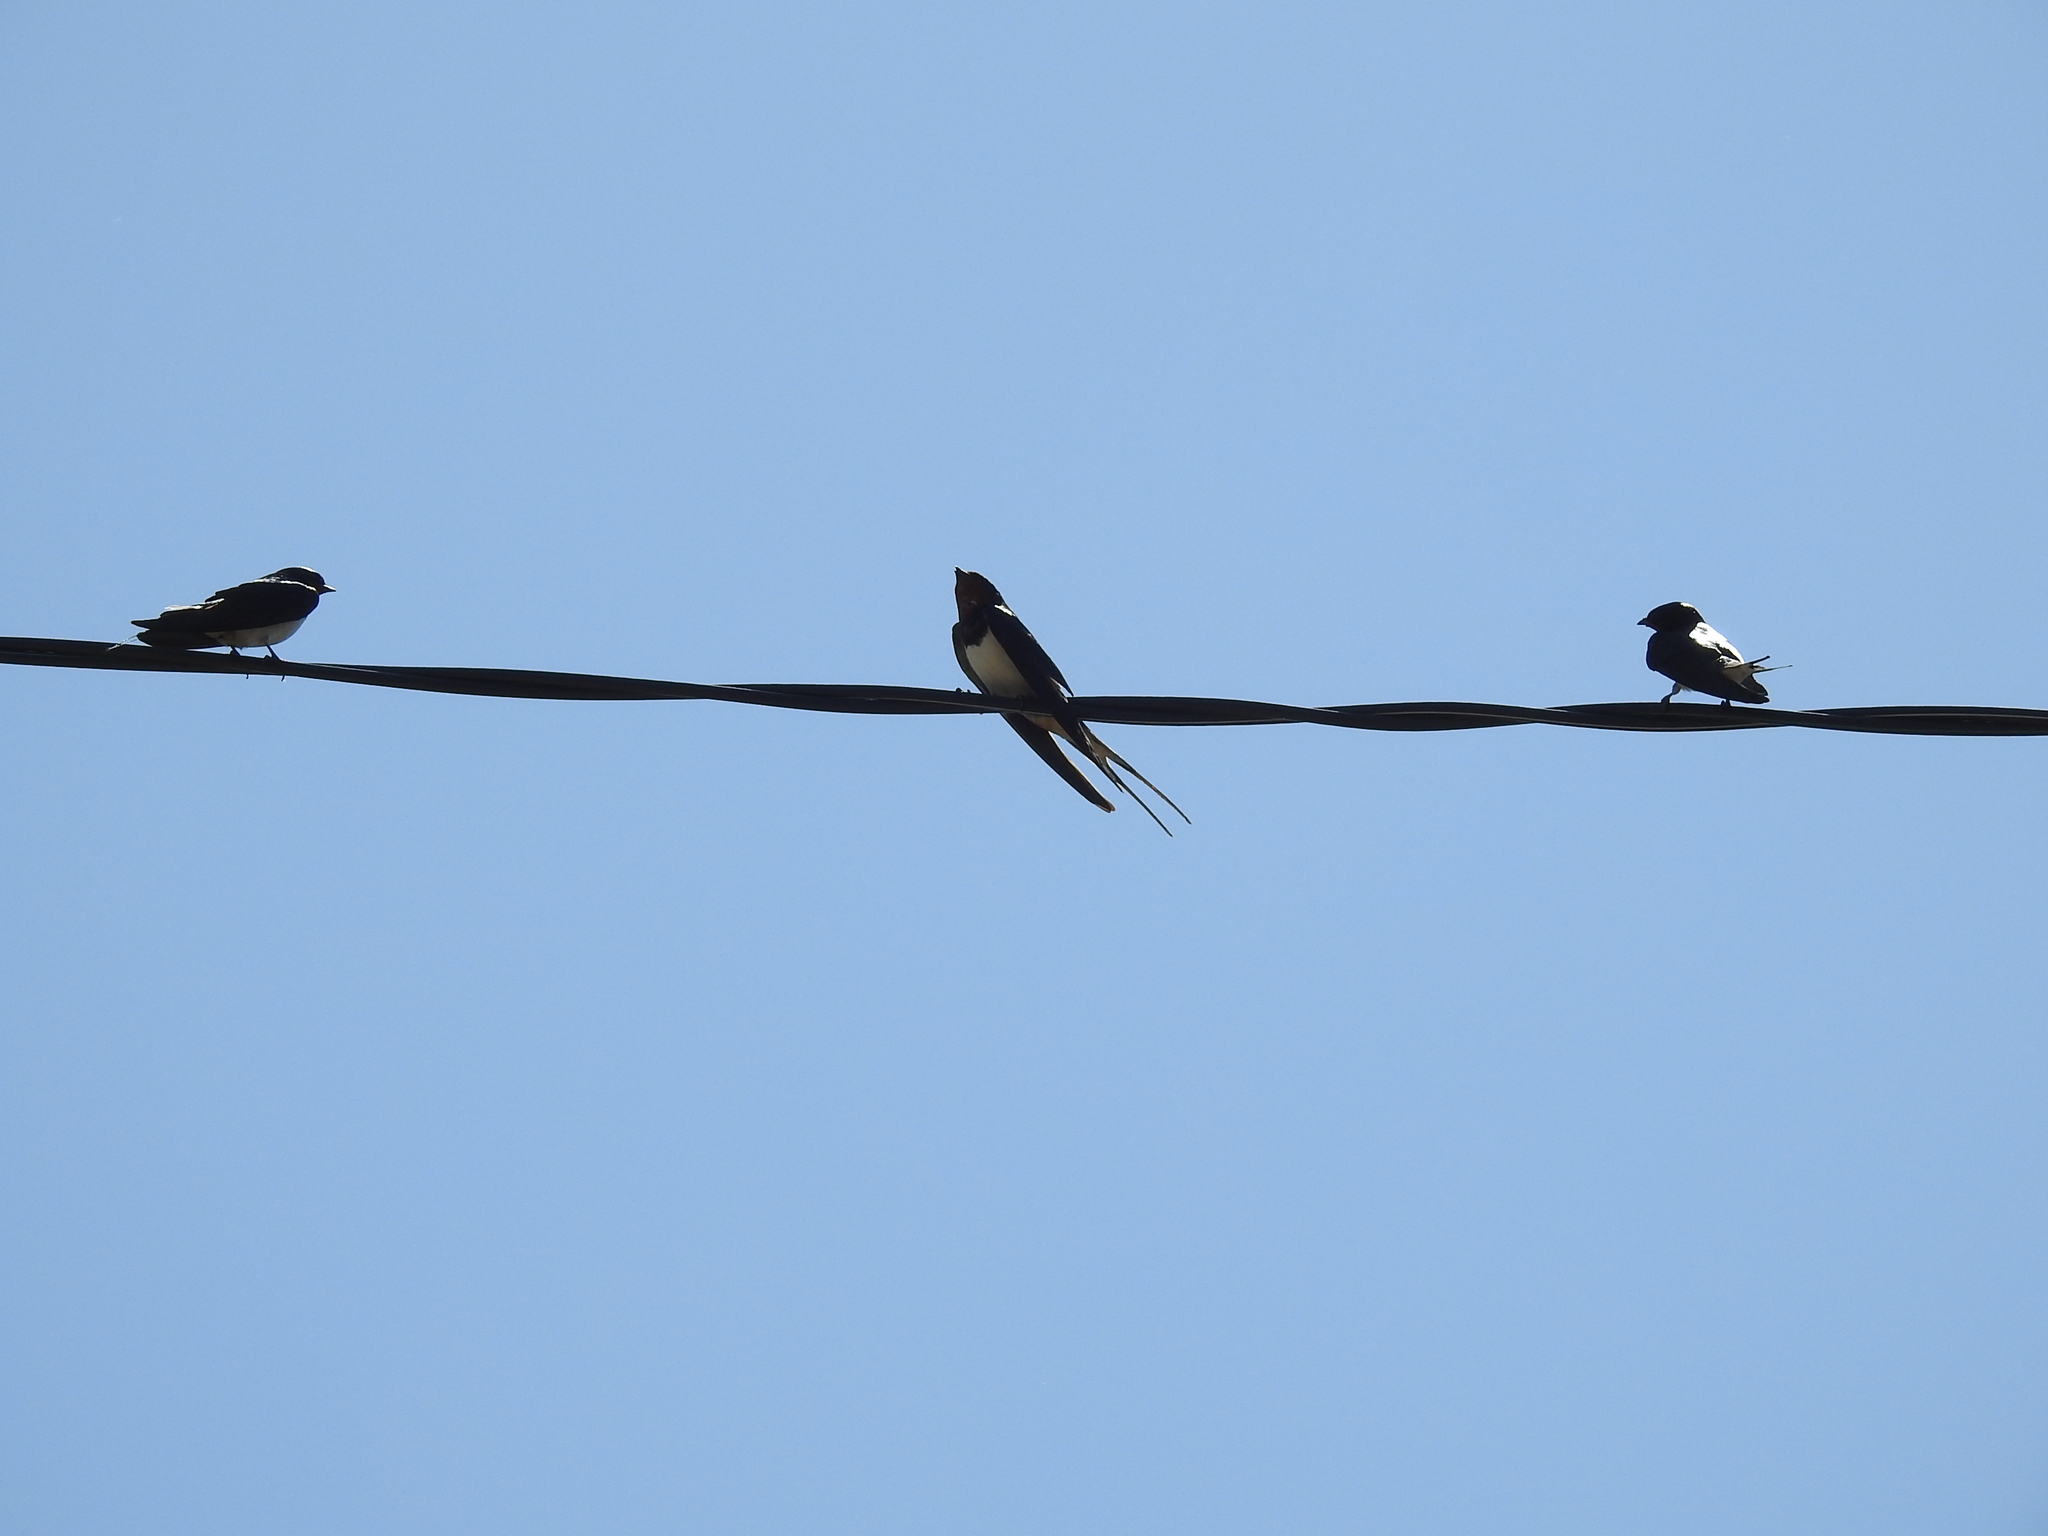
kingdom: Animalia
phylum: Chordata
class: Aves
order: Passeriformes
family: Hirundinidae
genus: Hirundo
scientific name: Hirundo rustica
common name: Barn swallow
